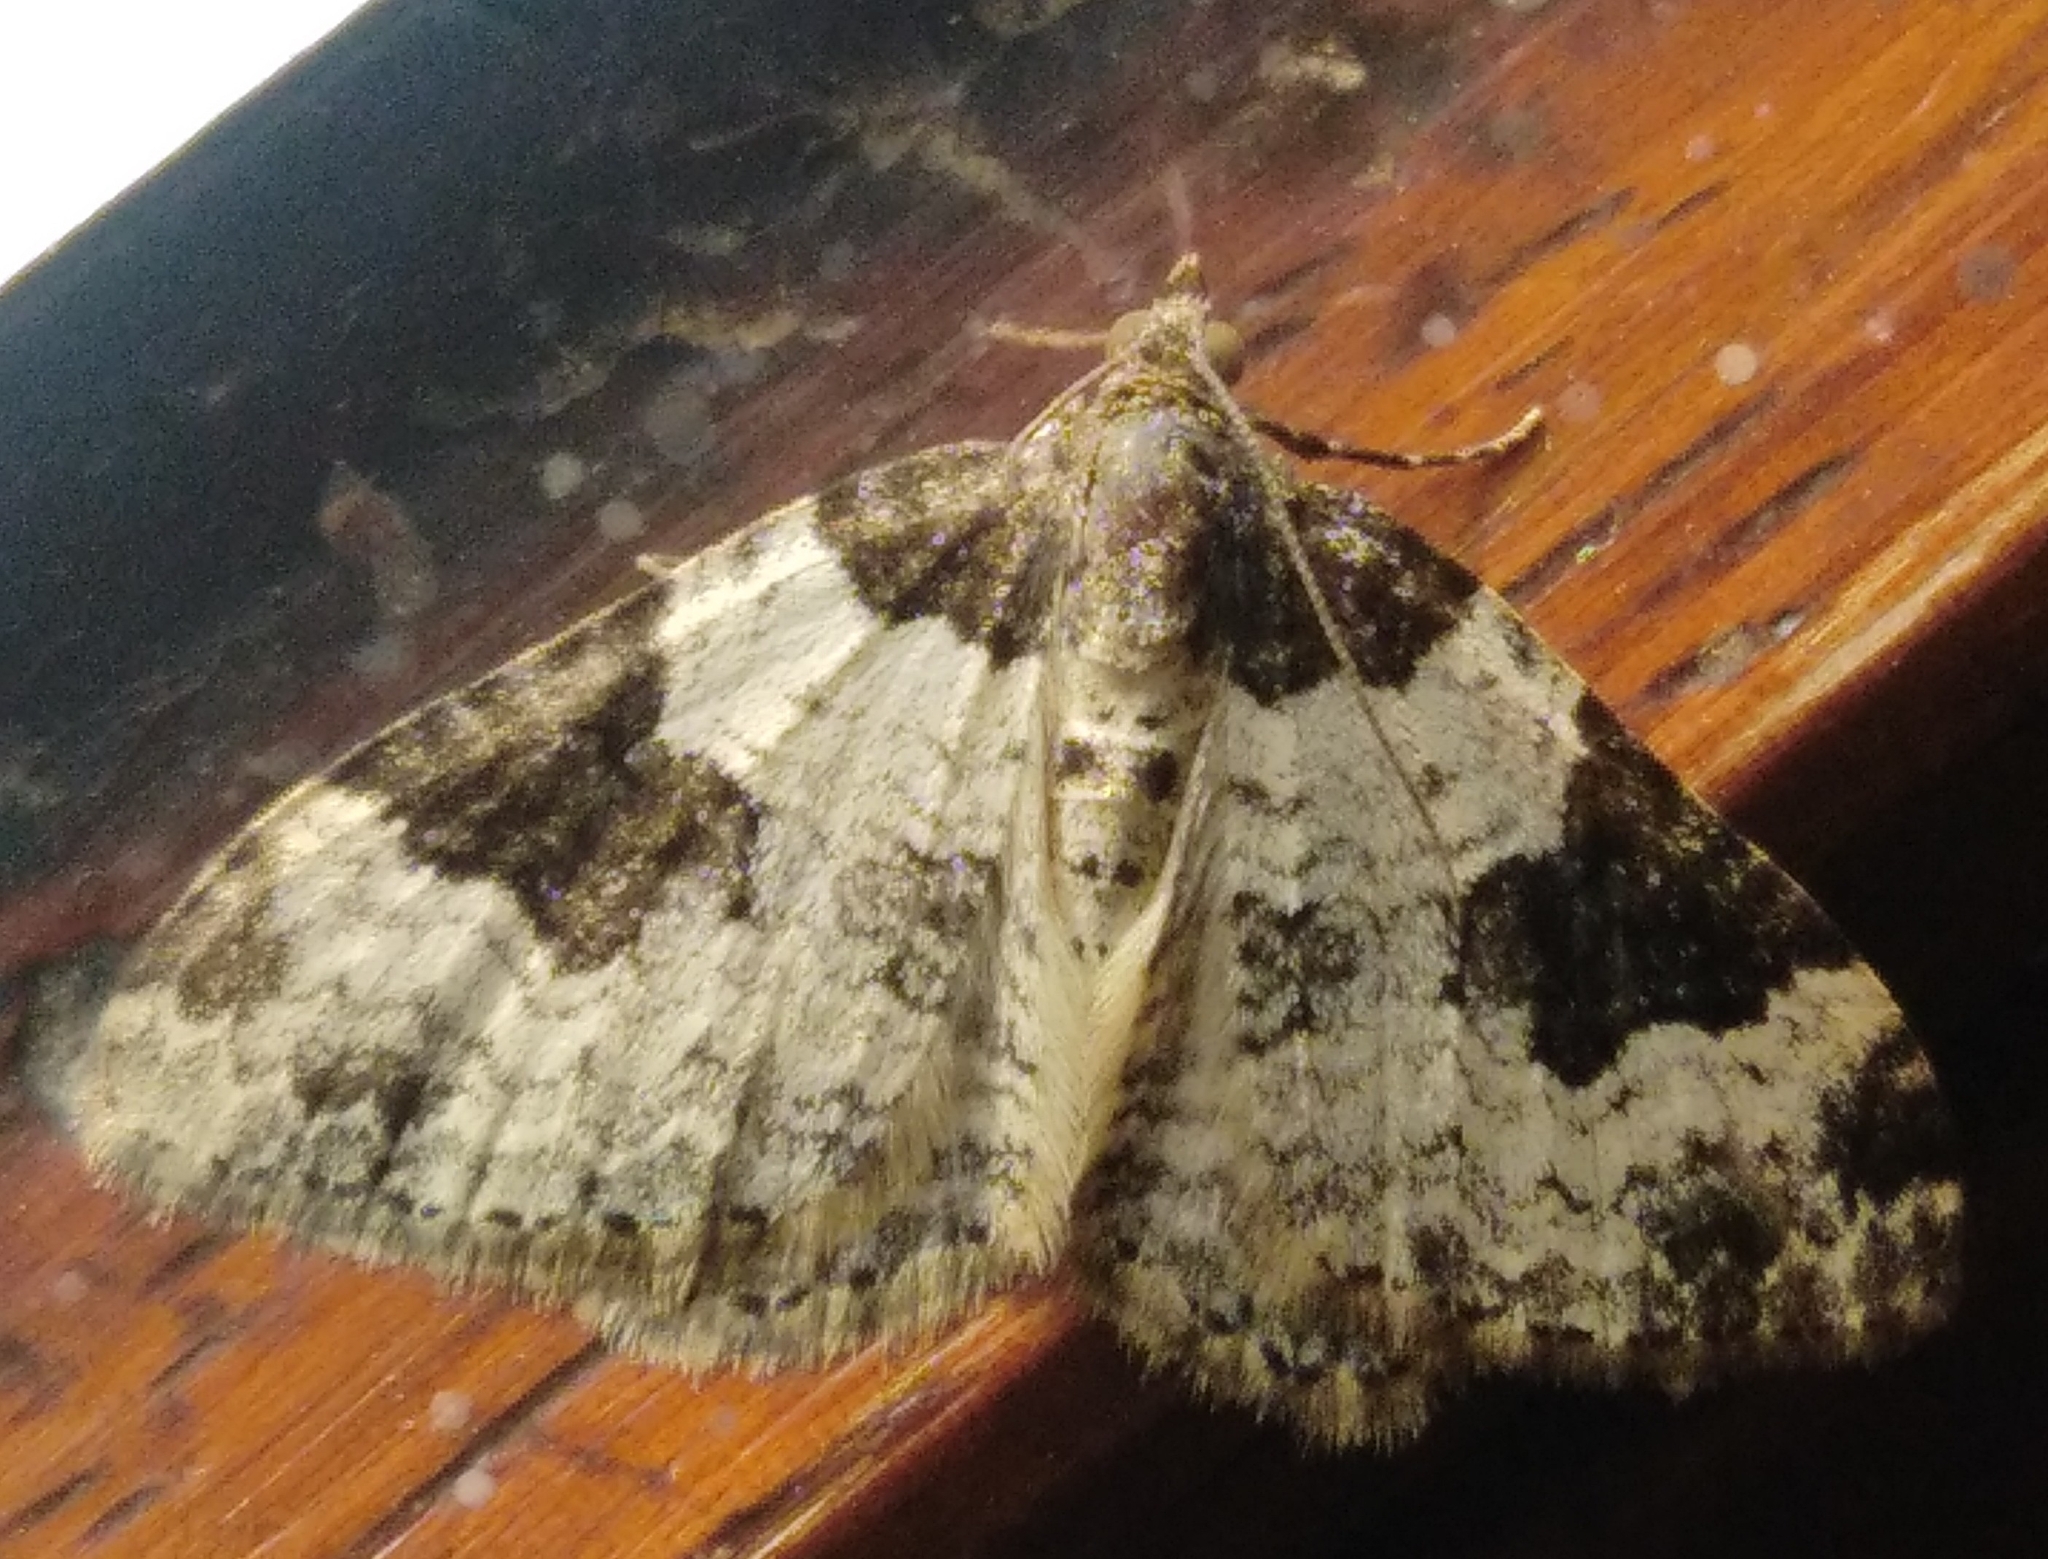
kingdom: Animalia
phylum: Arthropoda
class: Insecta
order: Lepidoptera
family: Geometridae
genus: Xanthorhoe
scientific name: Xanthorhoe fluctuata
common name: Garden carpet
